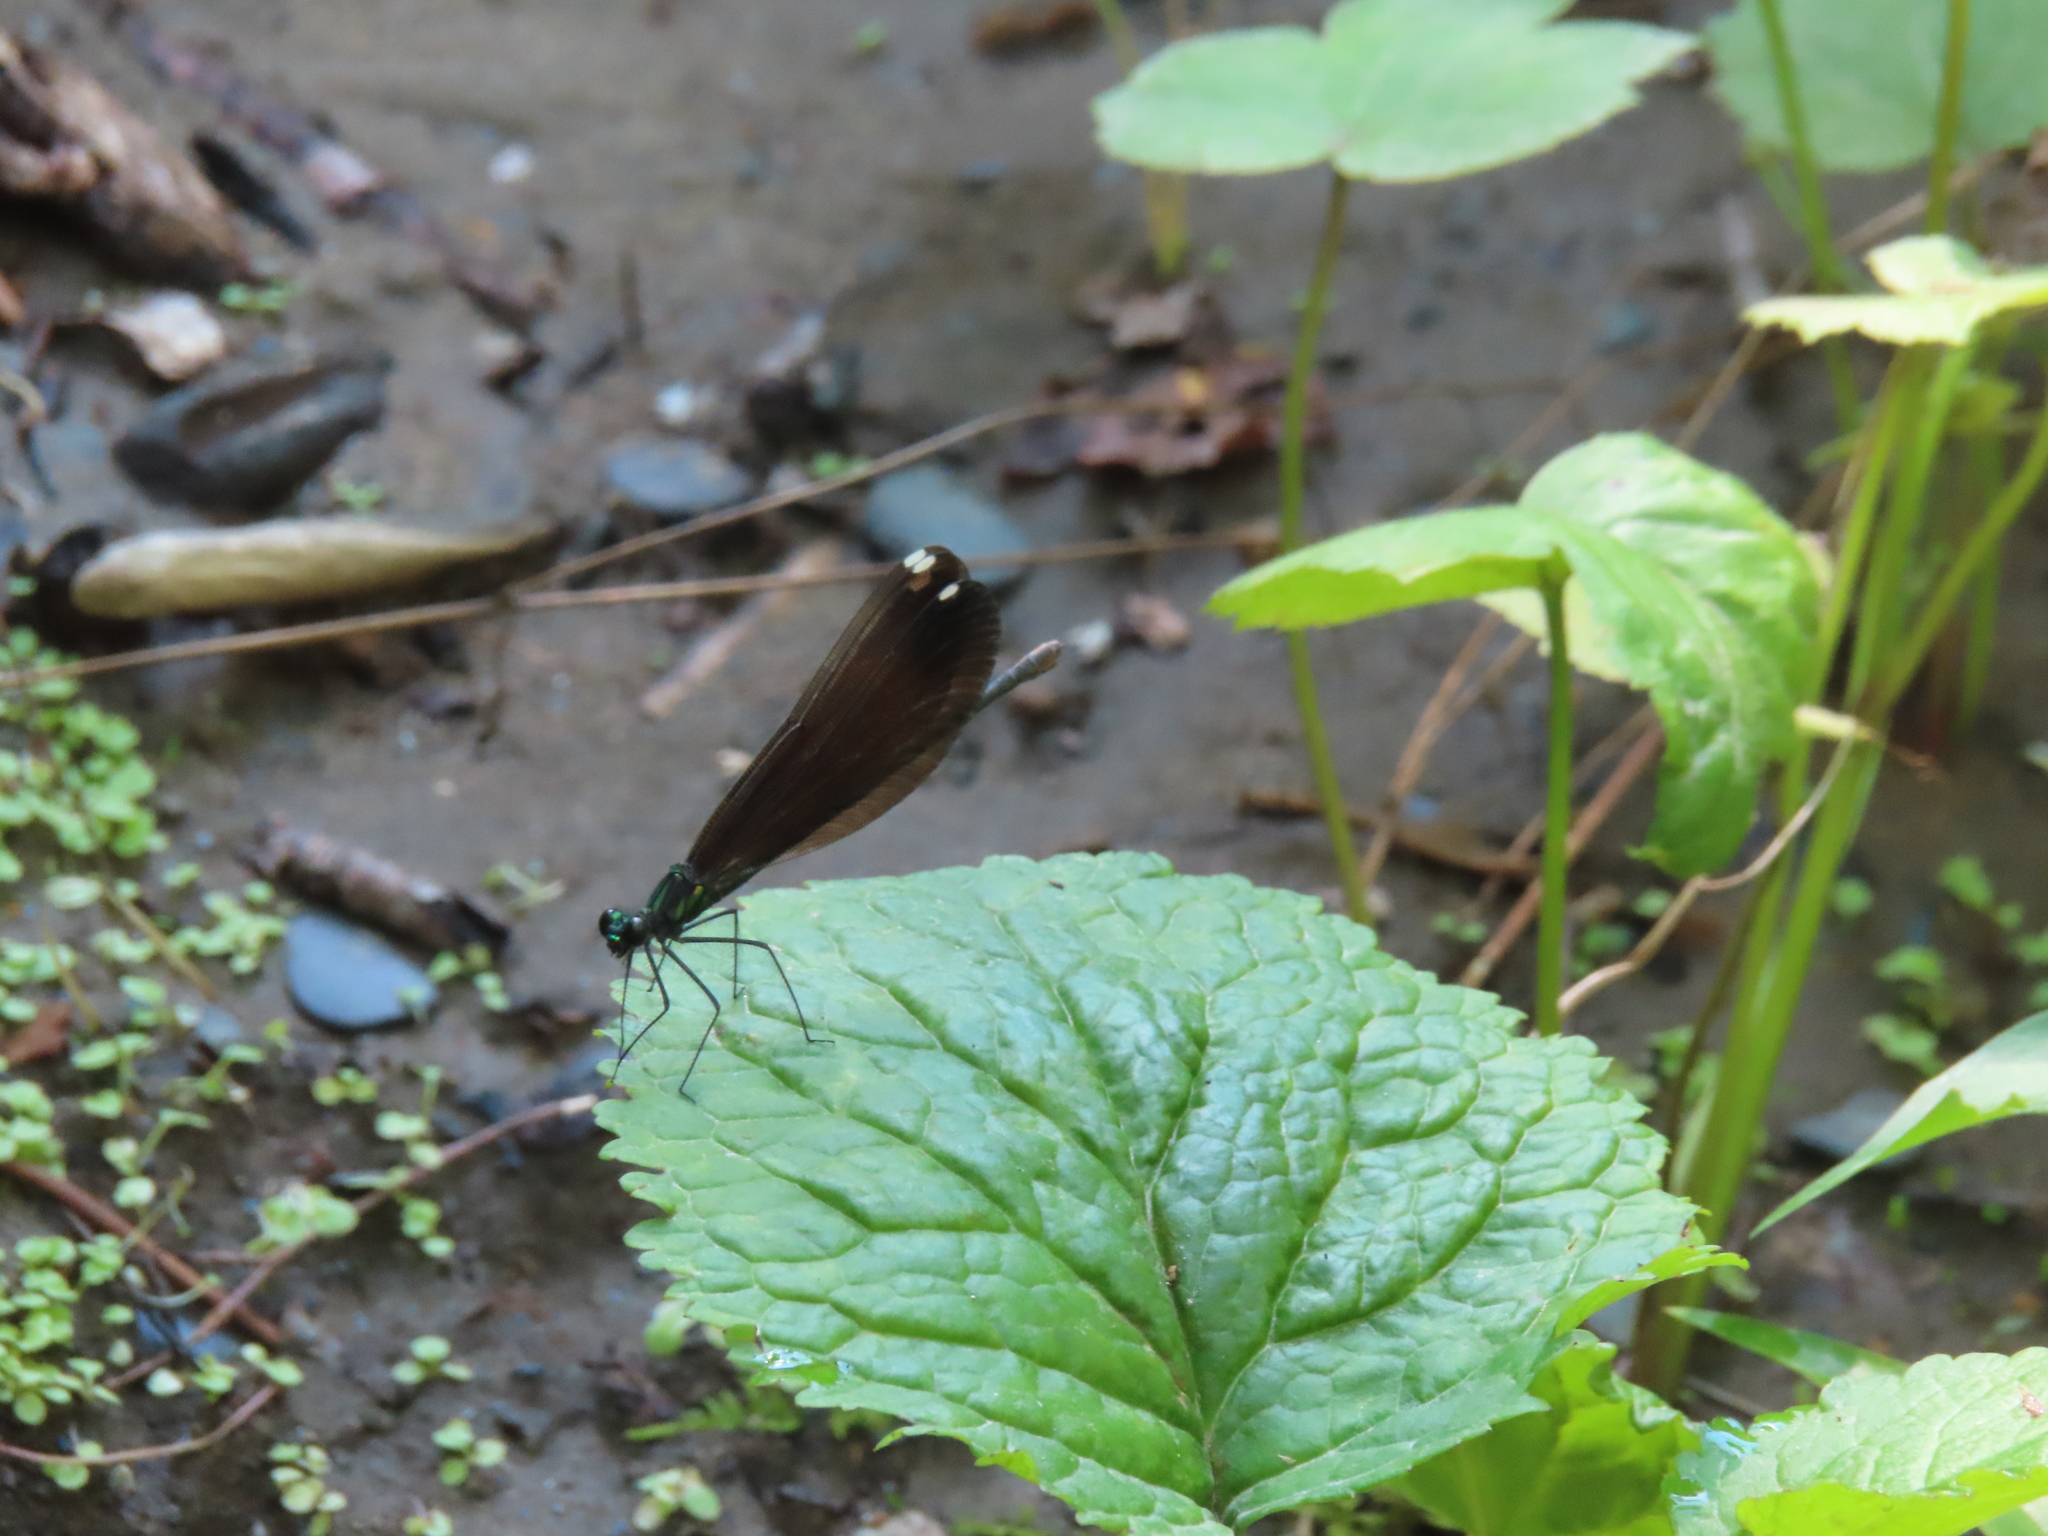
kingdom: Animalia
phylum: Arthropoda
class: Insecta
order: Odonata
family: Calopterygidae
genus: Calopteryx
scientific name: Calopteryx maculata
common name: Ebony jewelwing
